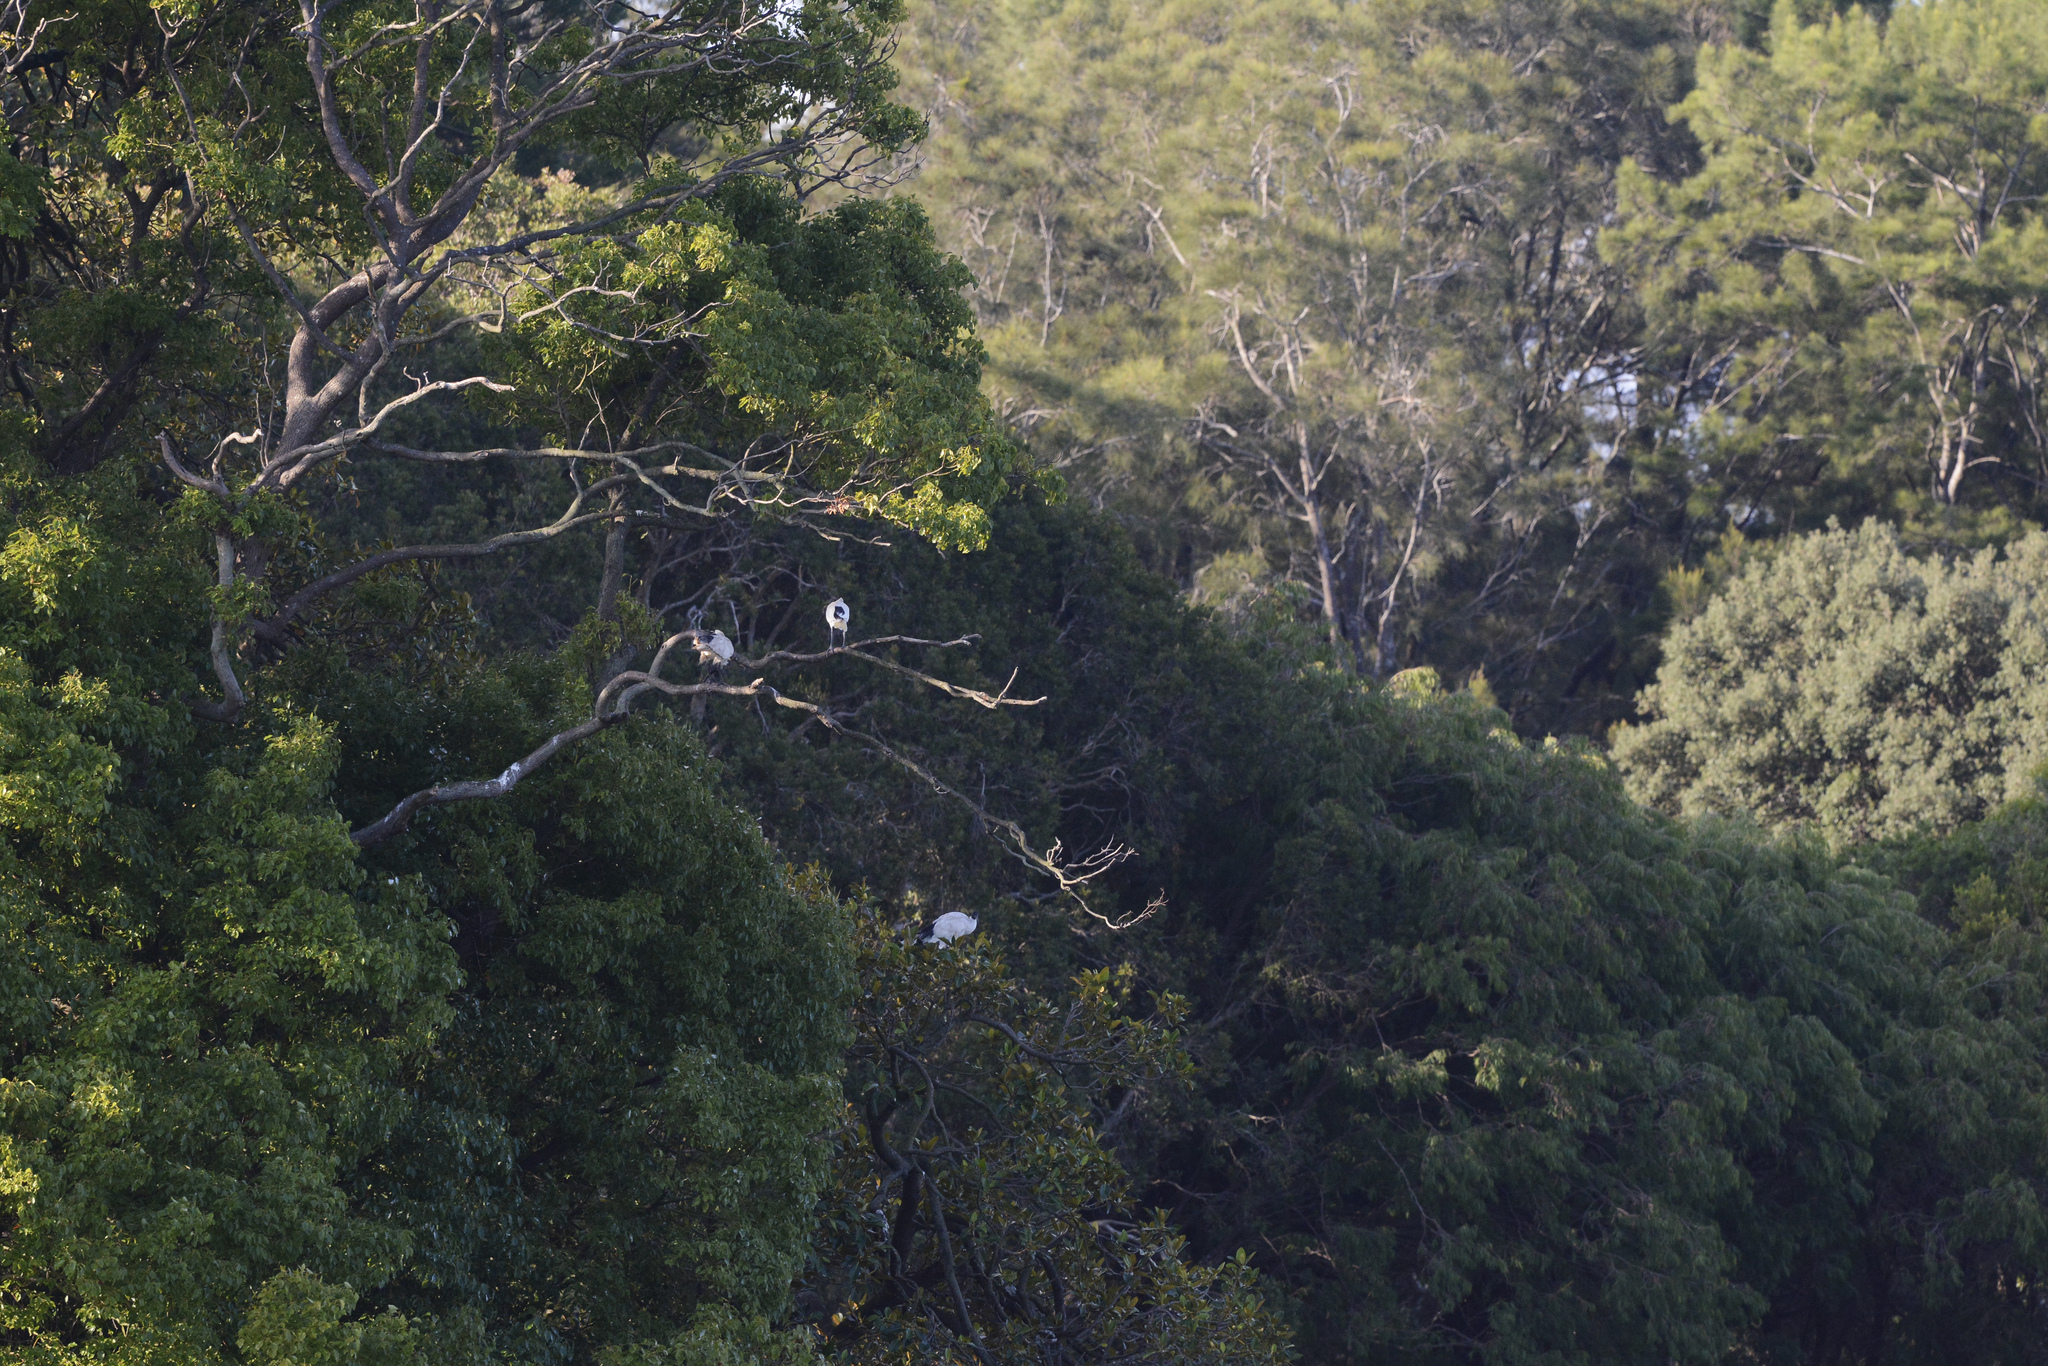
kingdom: Animalia
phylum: Chordata
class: Aves
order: Pelecaniformes
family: Threskiornithidae
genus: Threskiornis
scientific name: Threskiornis molucca
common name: Australian white ibis
